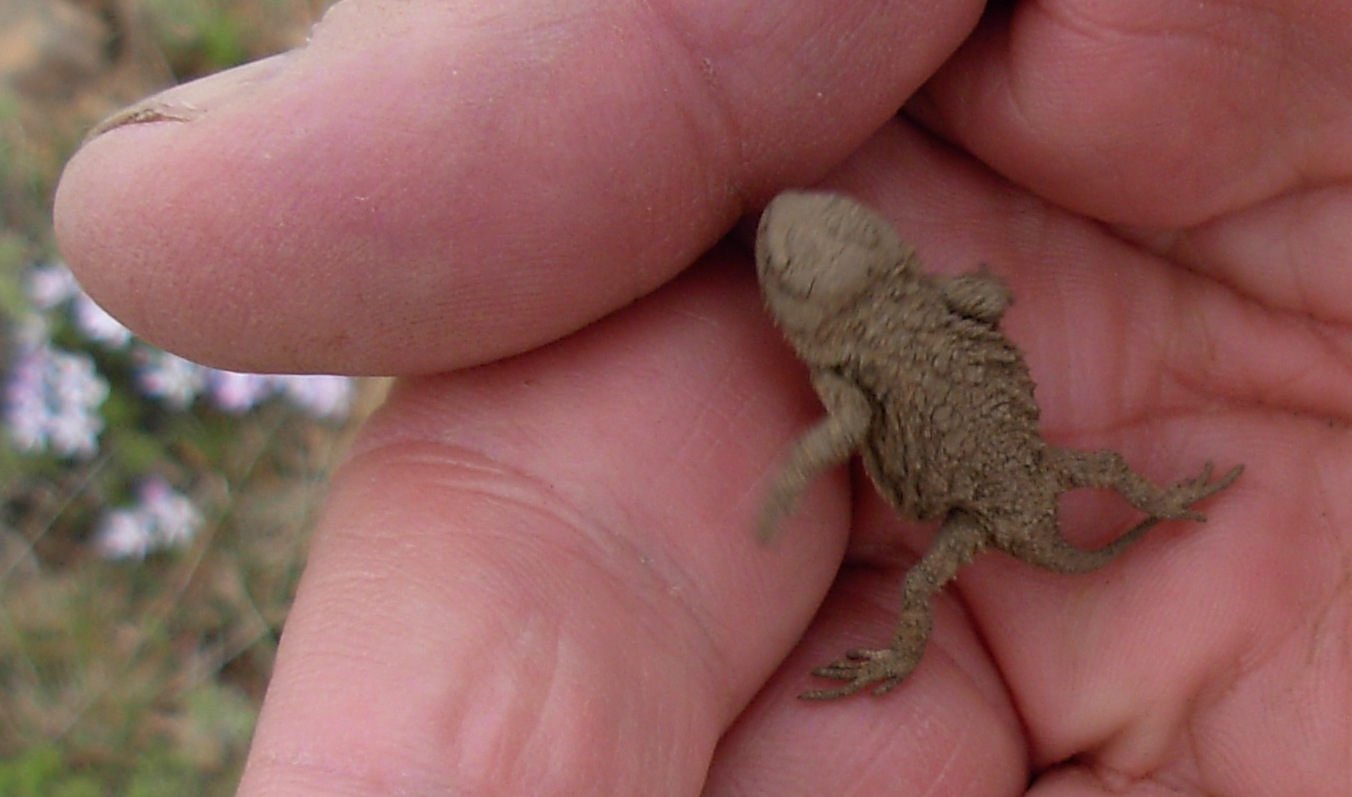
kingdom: Animalia
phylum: Chordata
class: Squamata
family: Phrynosomatidae
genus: Phrynosoma
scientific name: Phrynosoma douglasii
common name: Short-horned lizard
